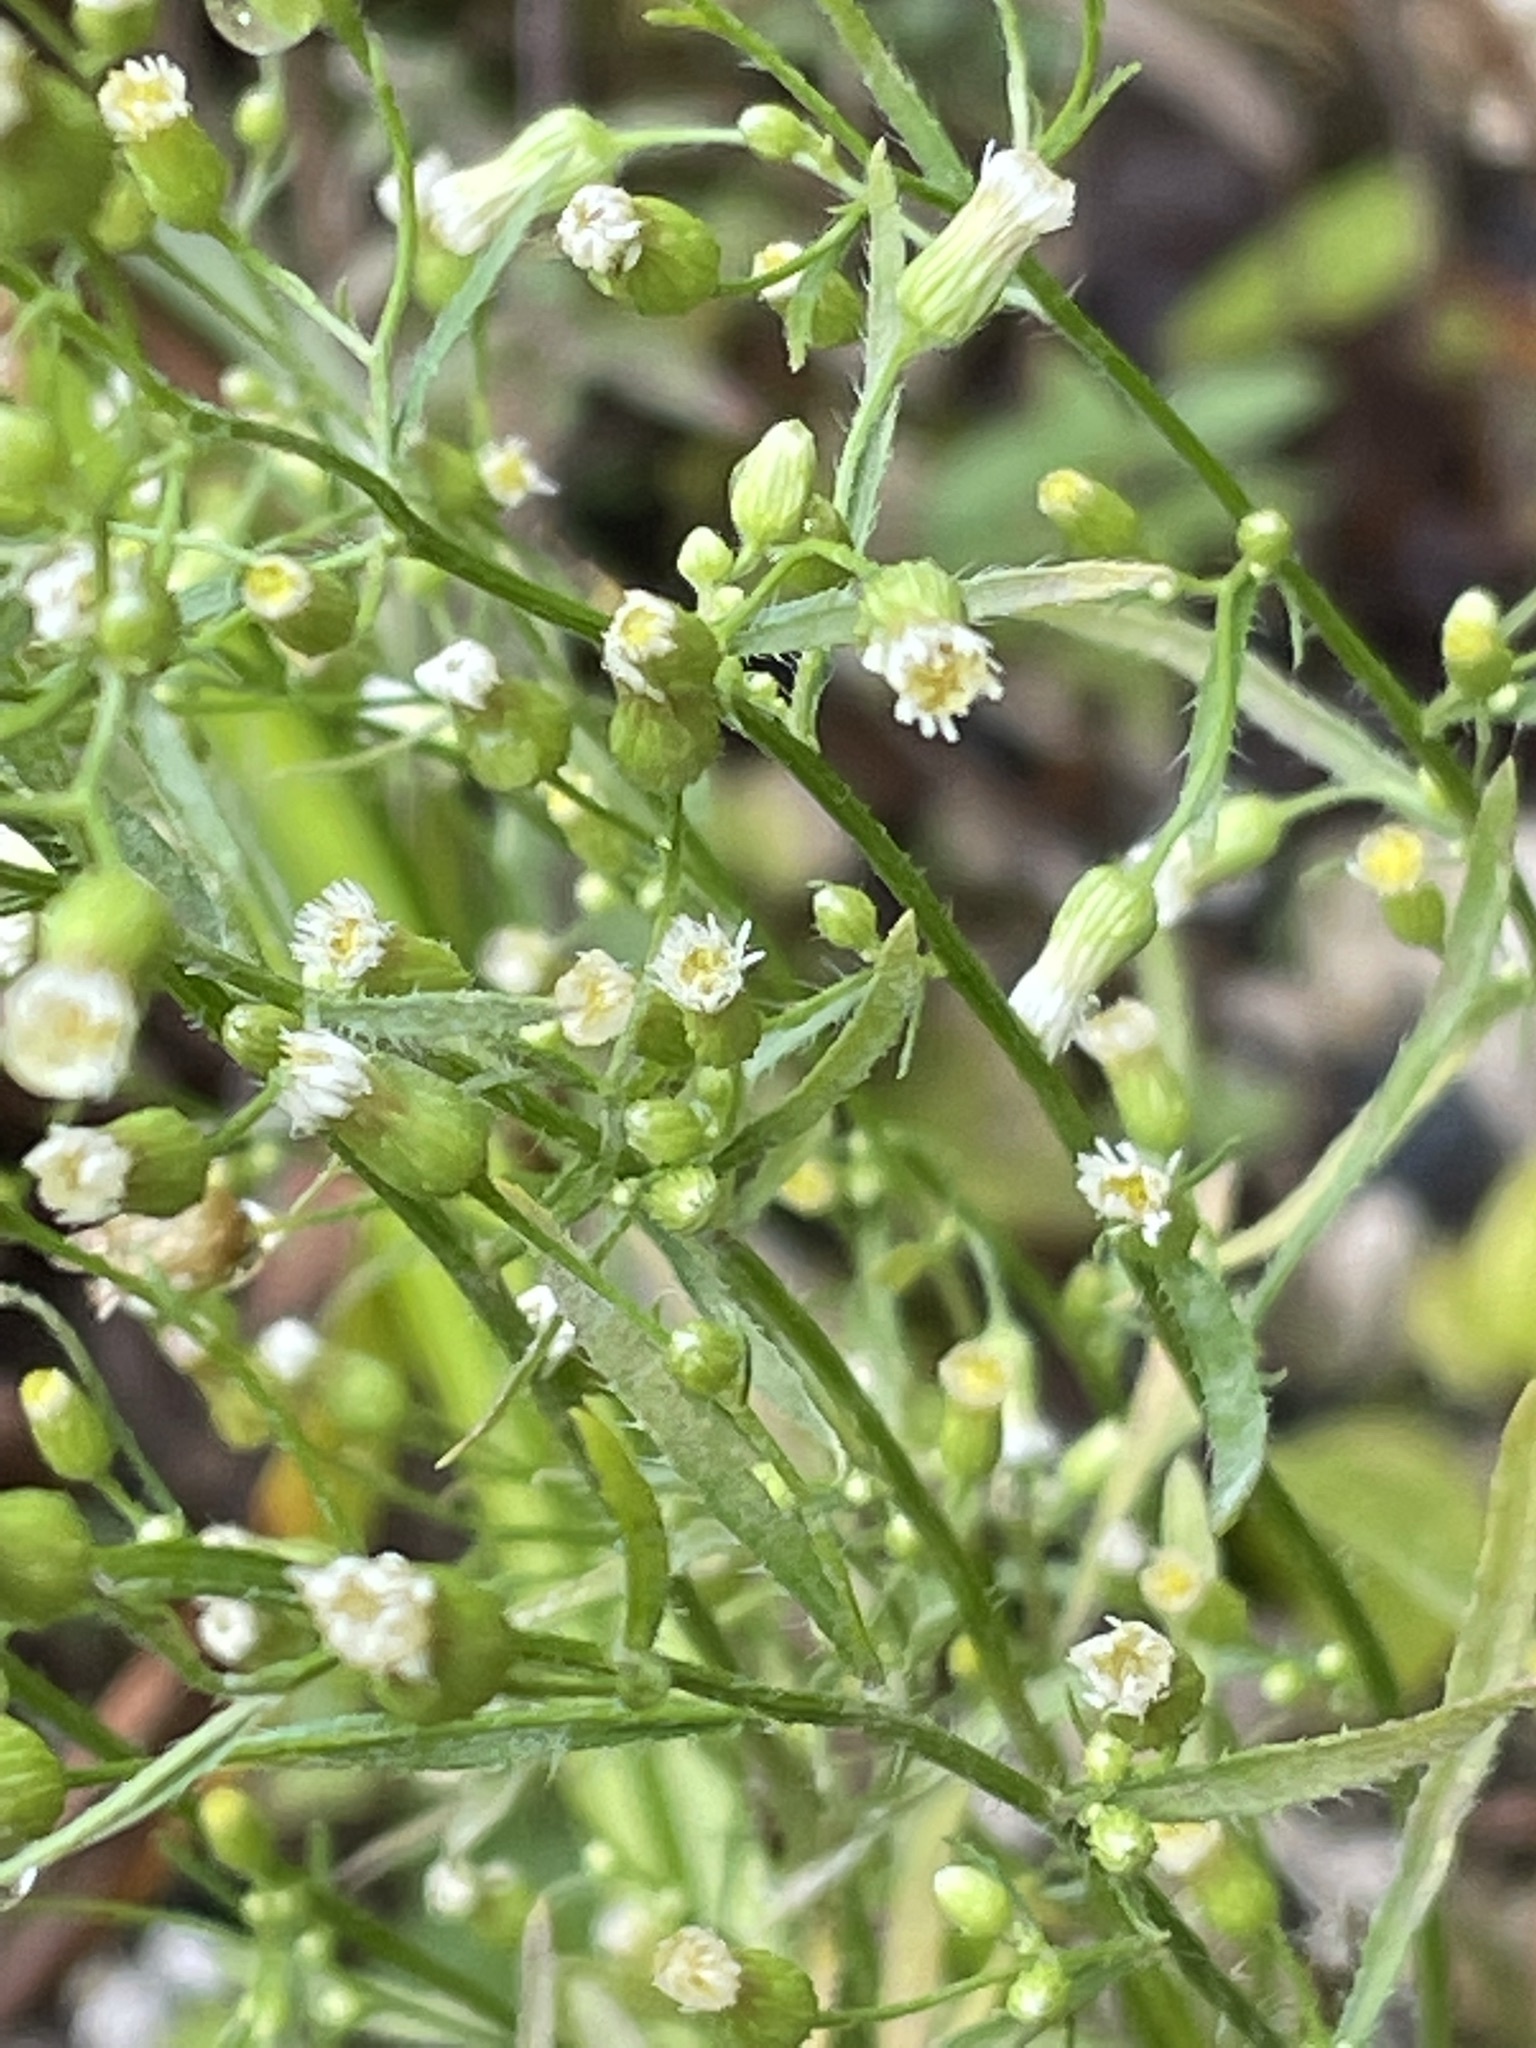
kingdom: Plantae
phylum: Tracheophyta
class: Magnoliopsida
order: Asterales
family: Asteraceae
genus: Erigeron
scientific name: Erigeron canadensis
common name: Canadian fleabane
